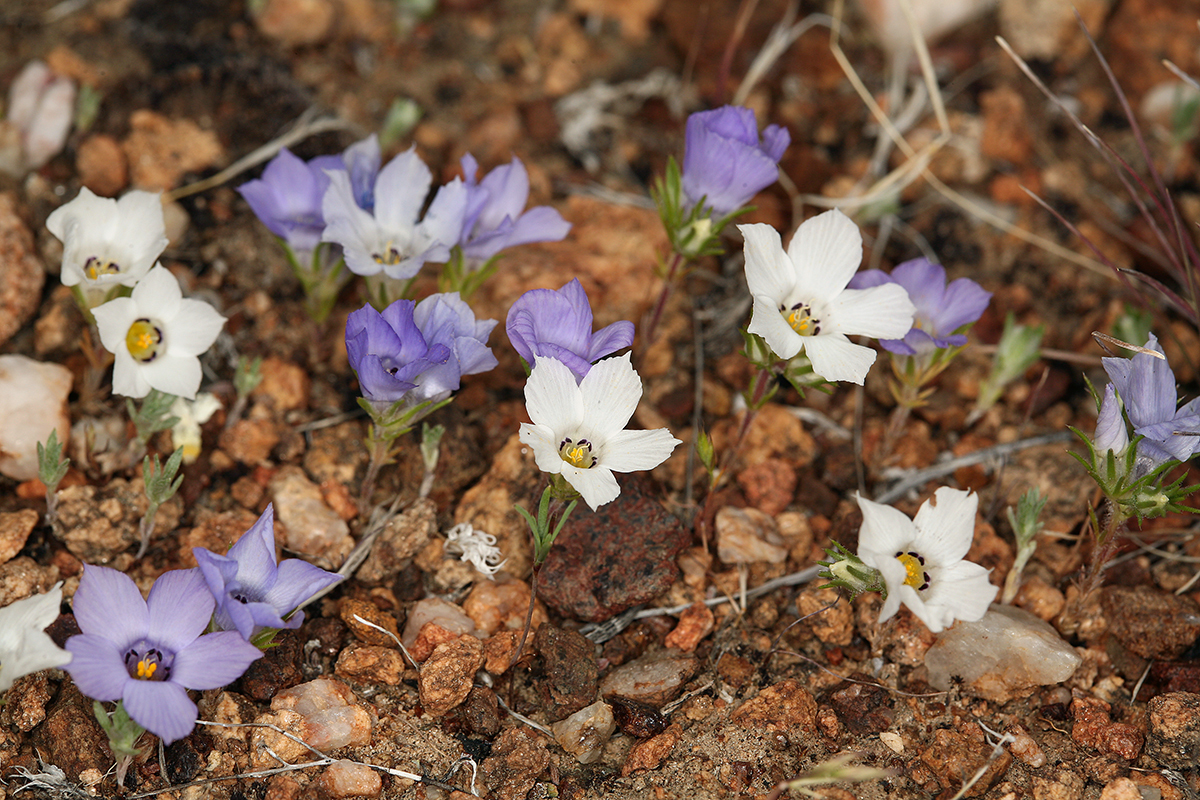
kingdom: Plantae
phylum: Tracheophyta
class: Magnoliopsida
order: Ericales
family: Polemoniaceae
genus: Linanthus
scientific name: Linanthus parryae
